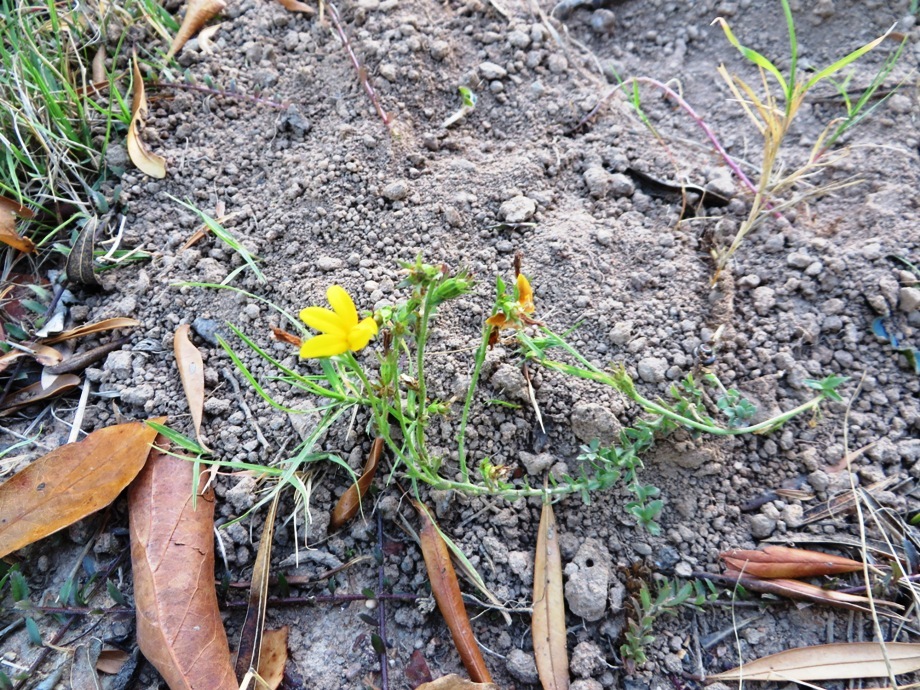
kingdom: Plantae
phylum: Tracheophyta
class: Magnoliopsida
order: Asterales
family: Campanulaceae
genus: Monopsis
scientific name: Monopsis lutea
